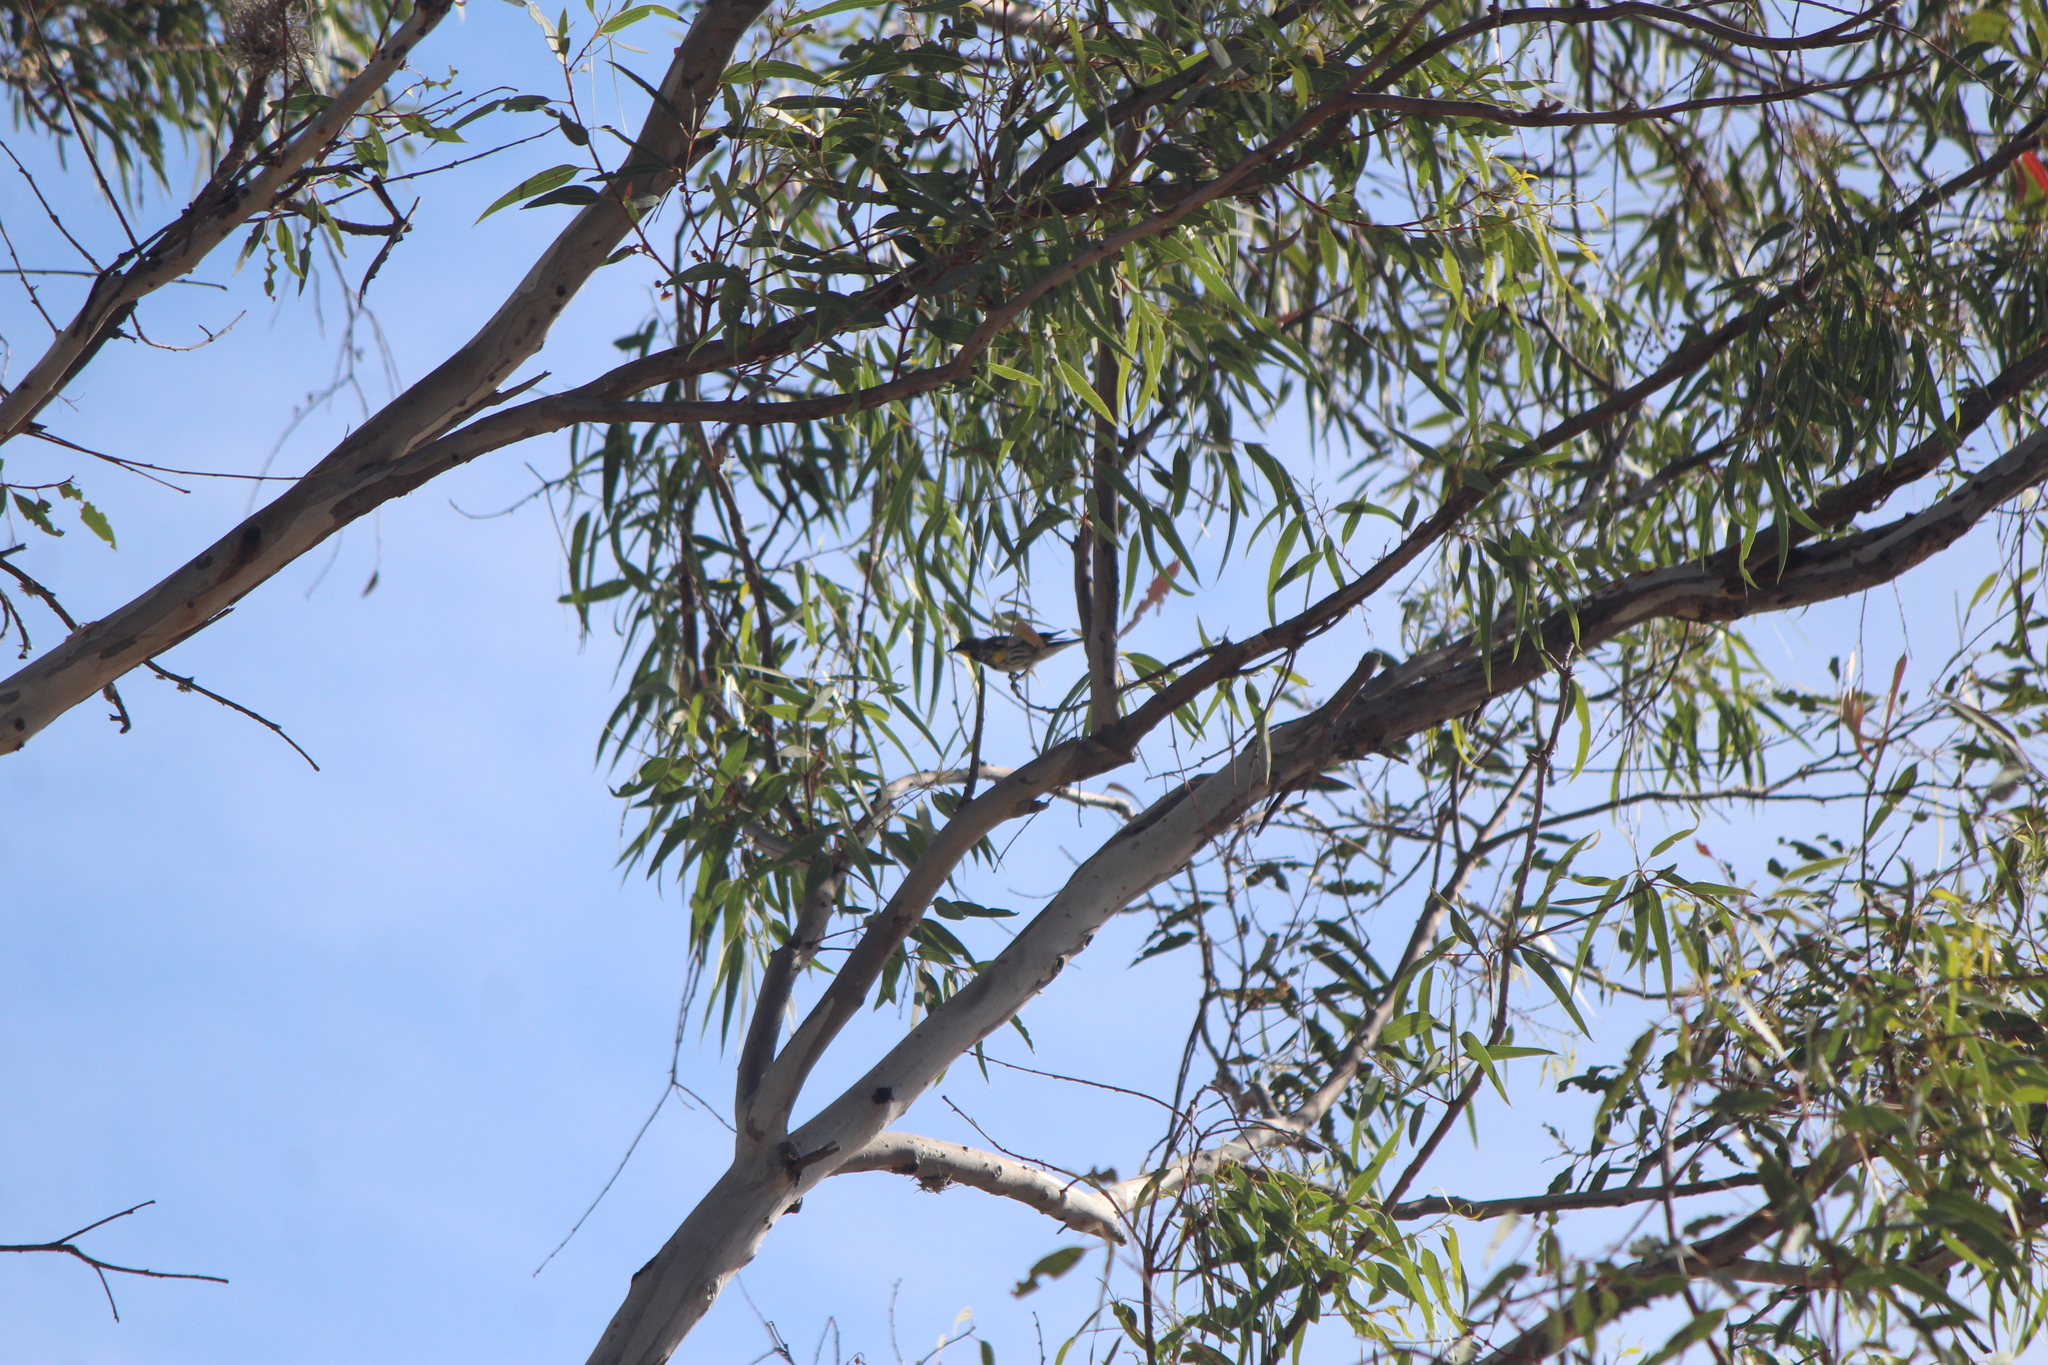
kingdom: Animalia
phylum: Chordata
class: Aves
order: Passeriformes
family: Parulidae
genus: Setophaga
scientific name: Setophaga coronata
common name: Myrtle warbler
